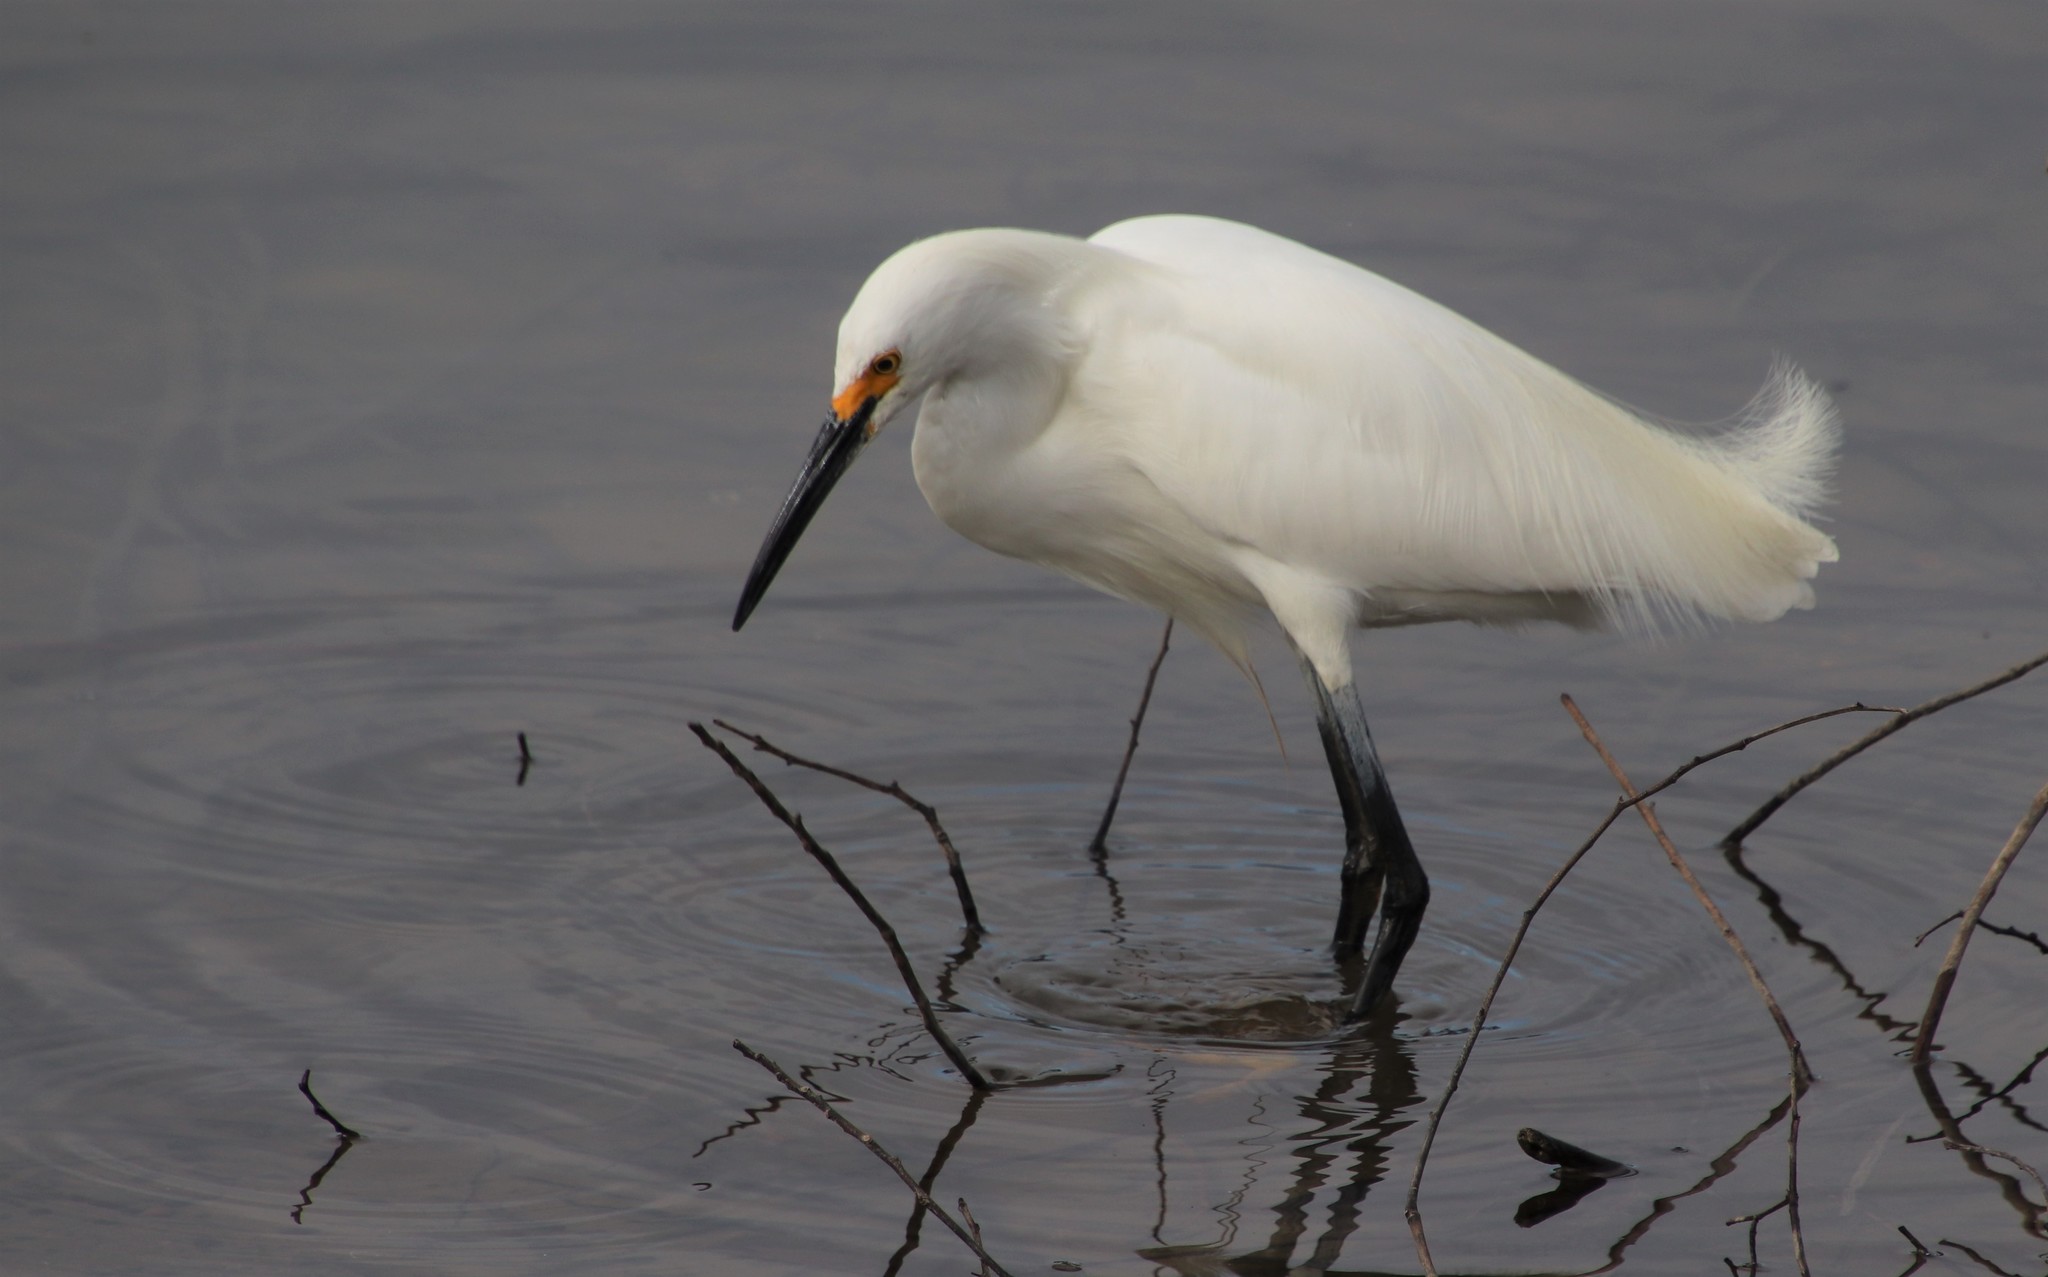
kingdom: Animalia
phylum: Chordata
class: Aves
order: Pelecaniformes
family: Ardeidae
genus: Egretta
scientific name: Egretta thula
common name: Snowy egret
